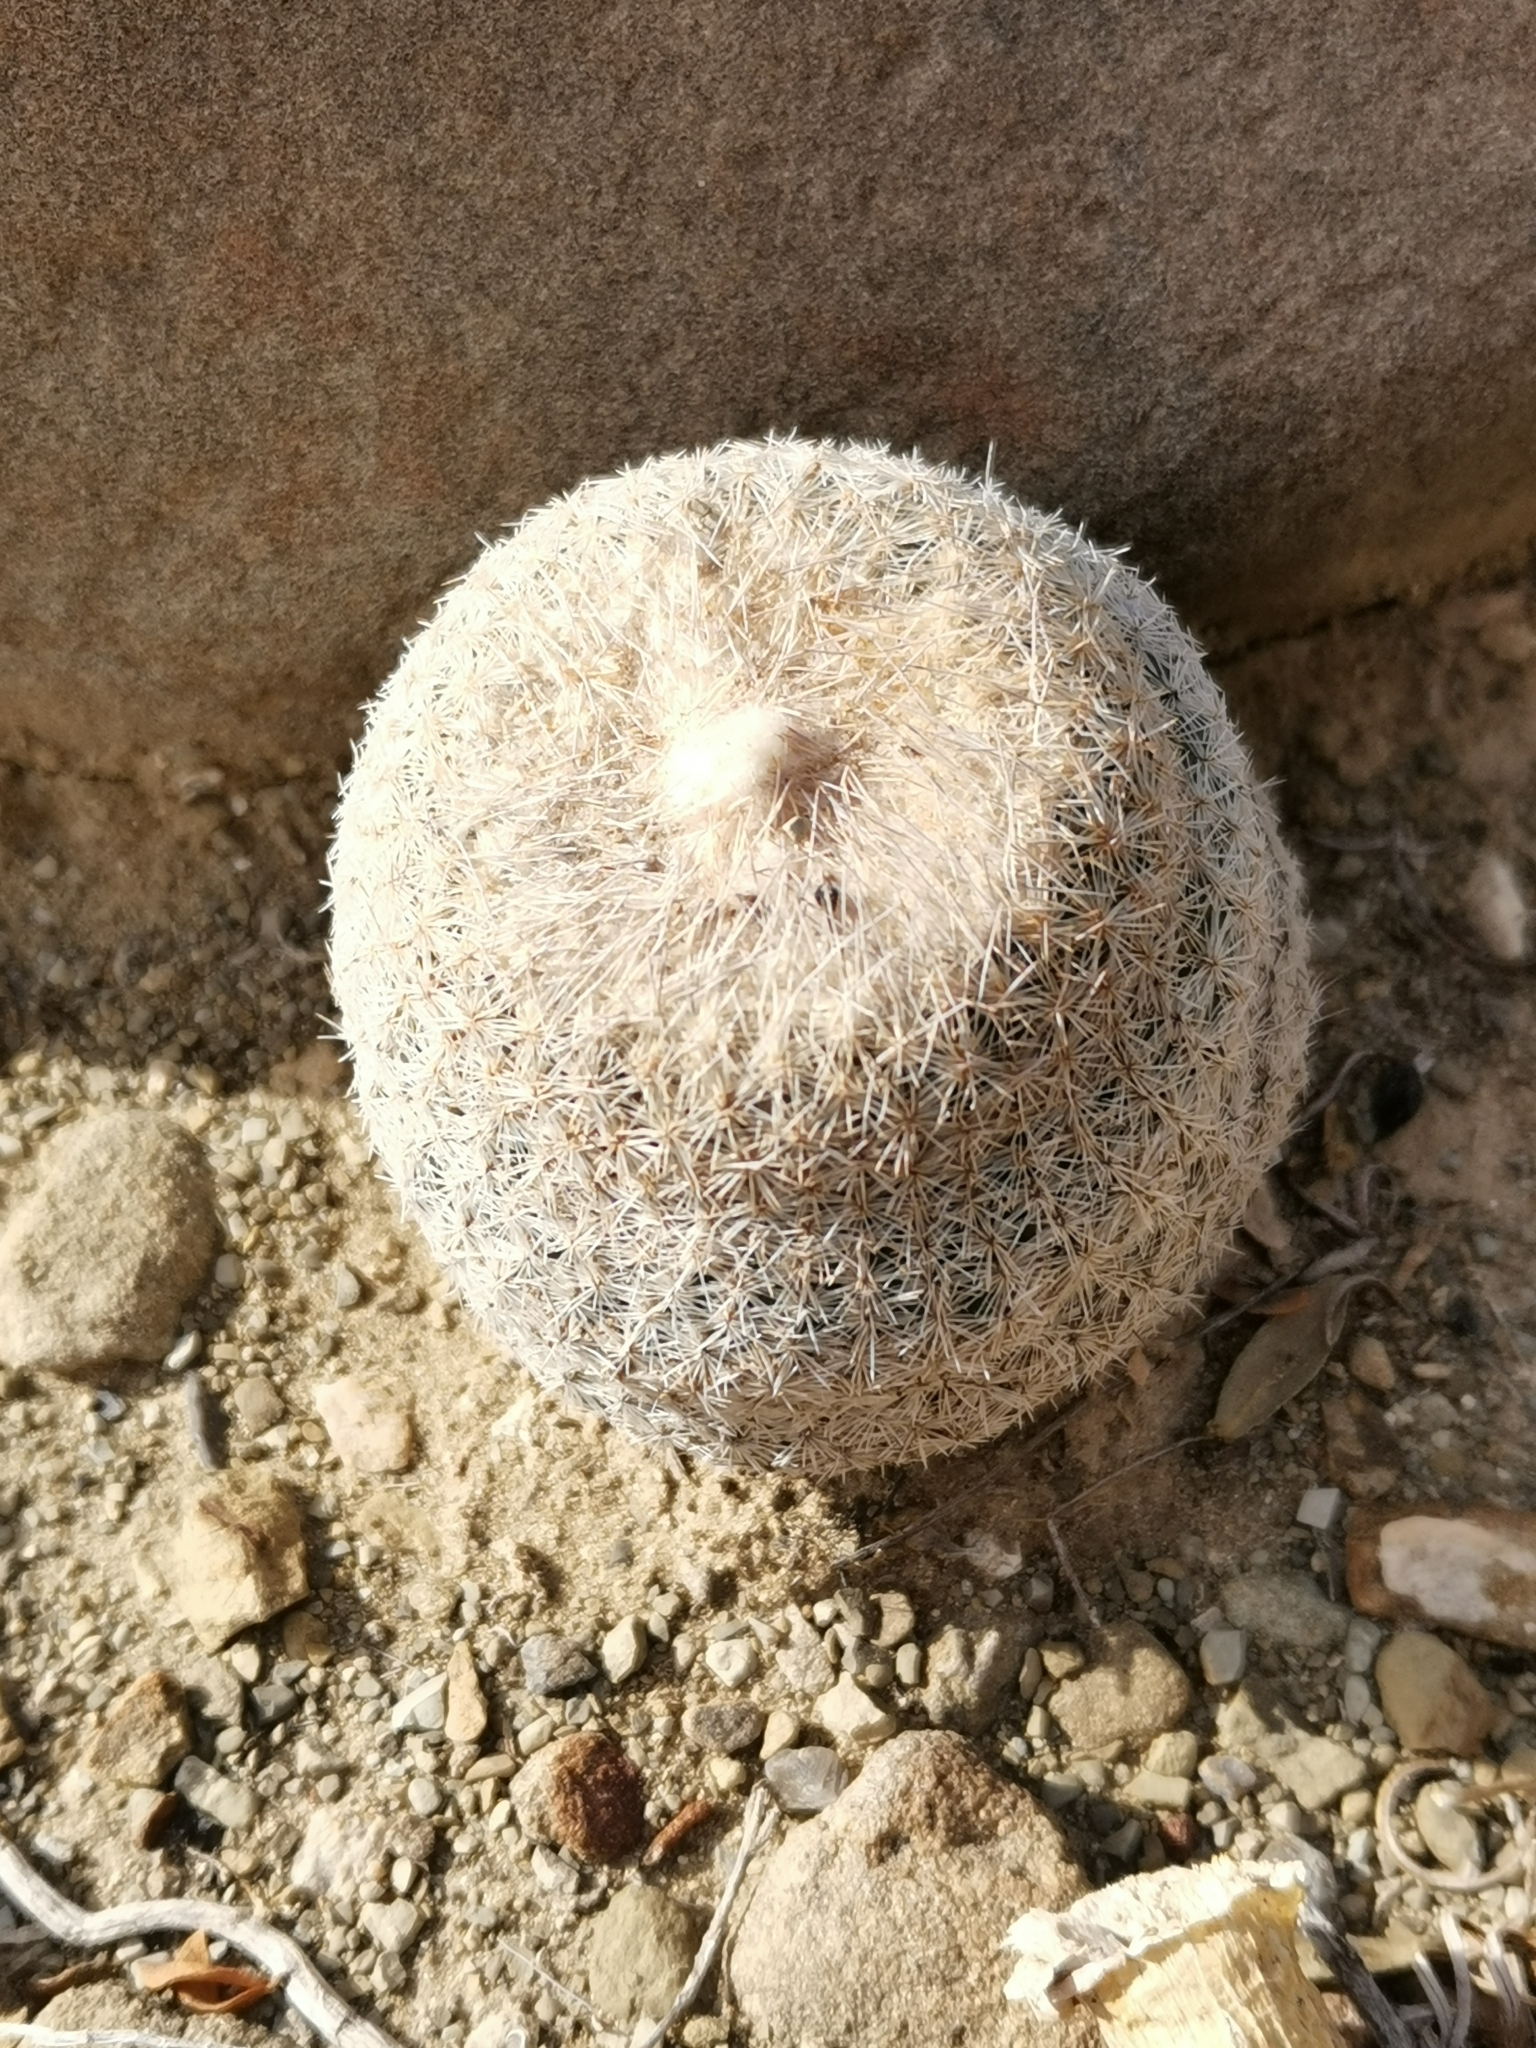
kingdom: Plantae
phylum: Tracheophyta
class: Magnoliopsida
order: Caryophyllales
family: Cactaceae
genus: Epithelantha
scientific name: Epithelantha greggii
